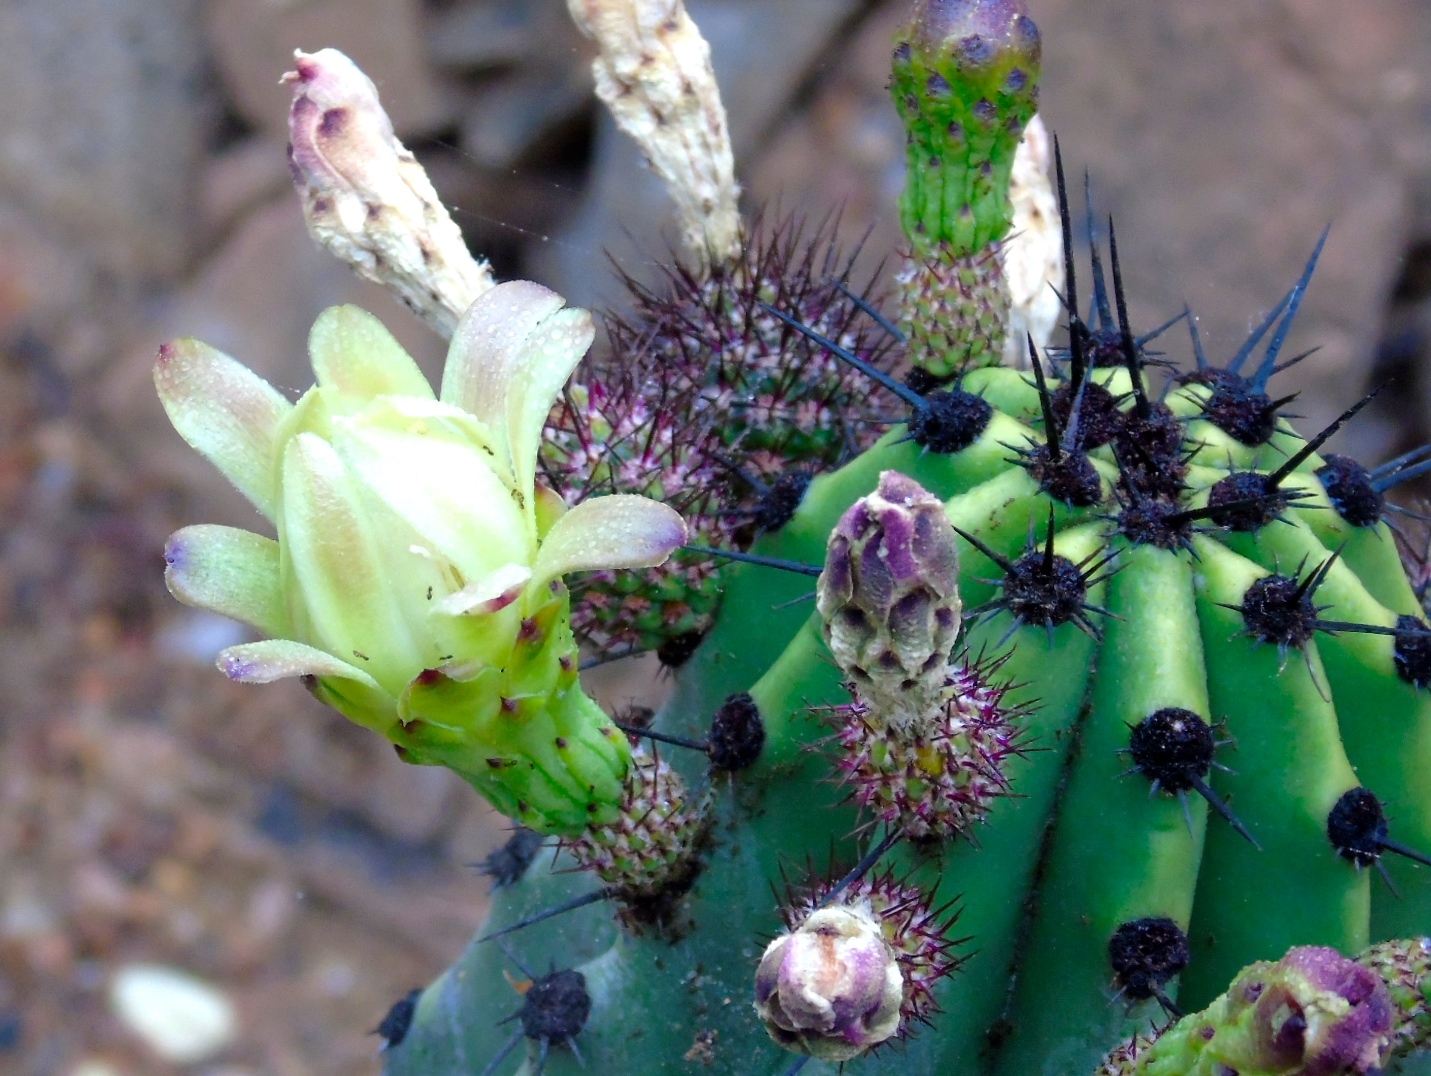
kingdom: Plantae
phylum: Tracheophyta
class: Magnoliopsida
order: Caryophyllales
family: Cactaceae
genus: Stenocereus
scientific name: Stenocereus martinezii
